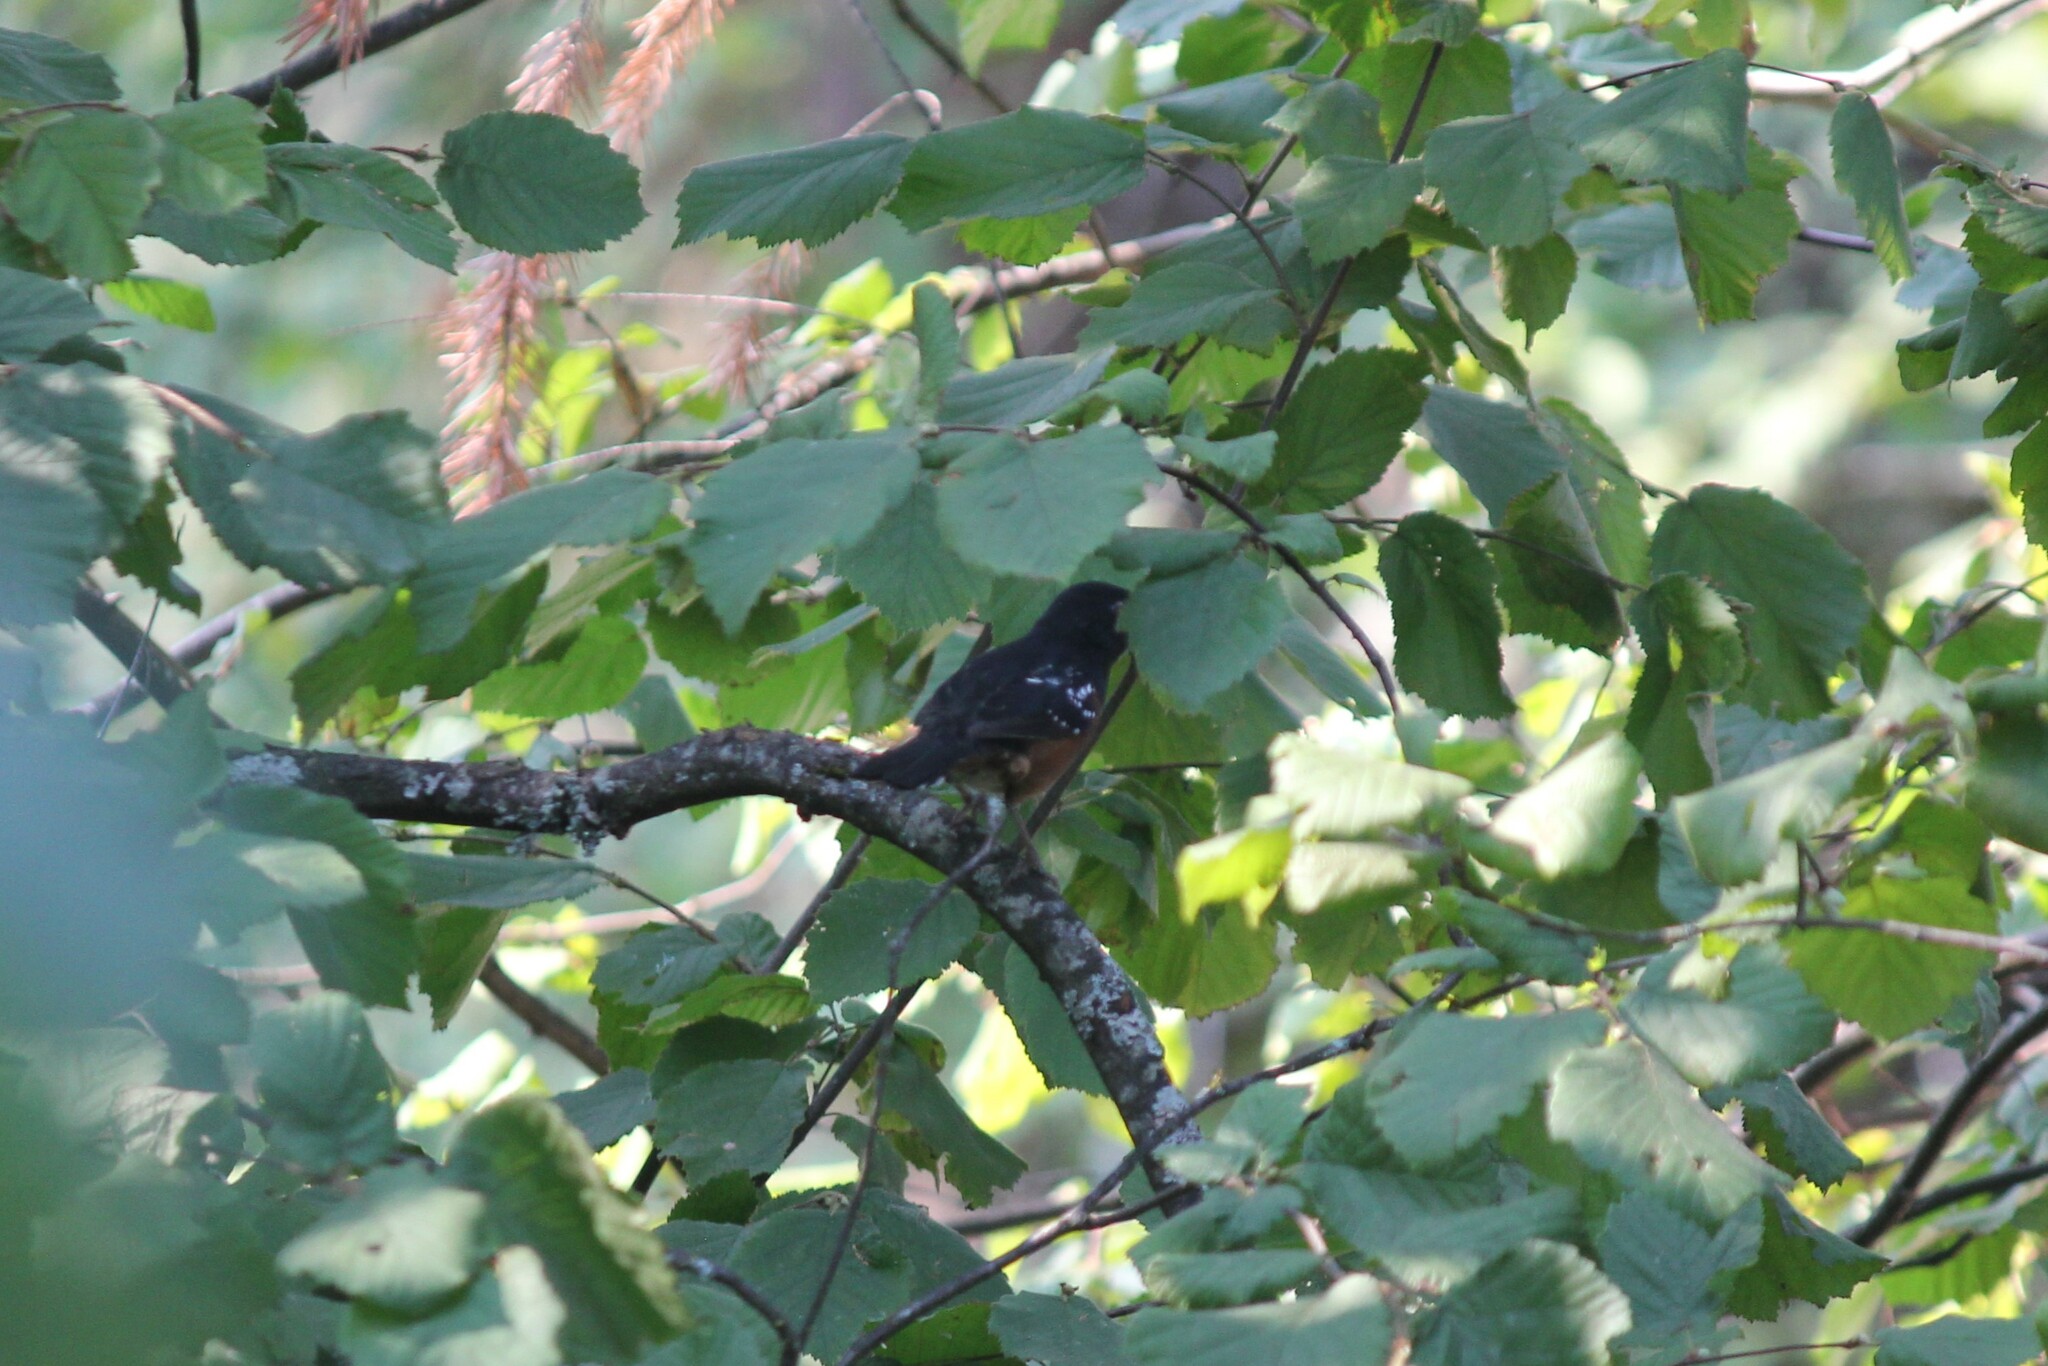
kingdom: Animalia
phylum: Chordata
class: Aves
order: Passeriformes
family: Passerellidae
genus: Pipilo
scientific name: Pipilo maculatus
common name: Spotted towhee
